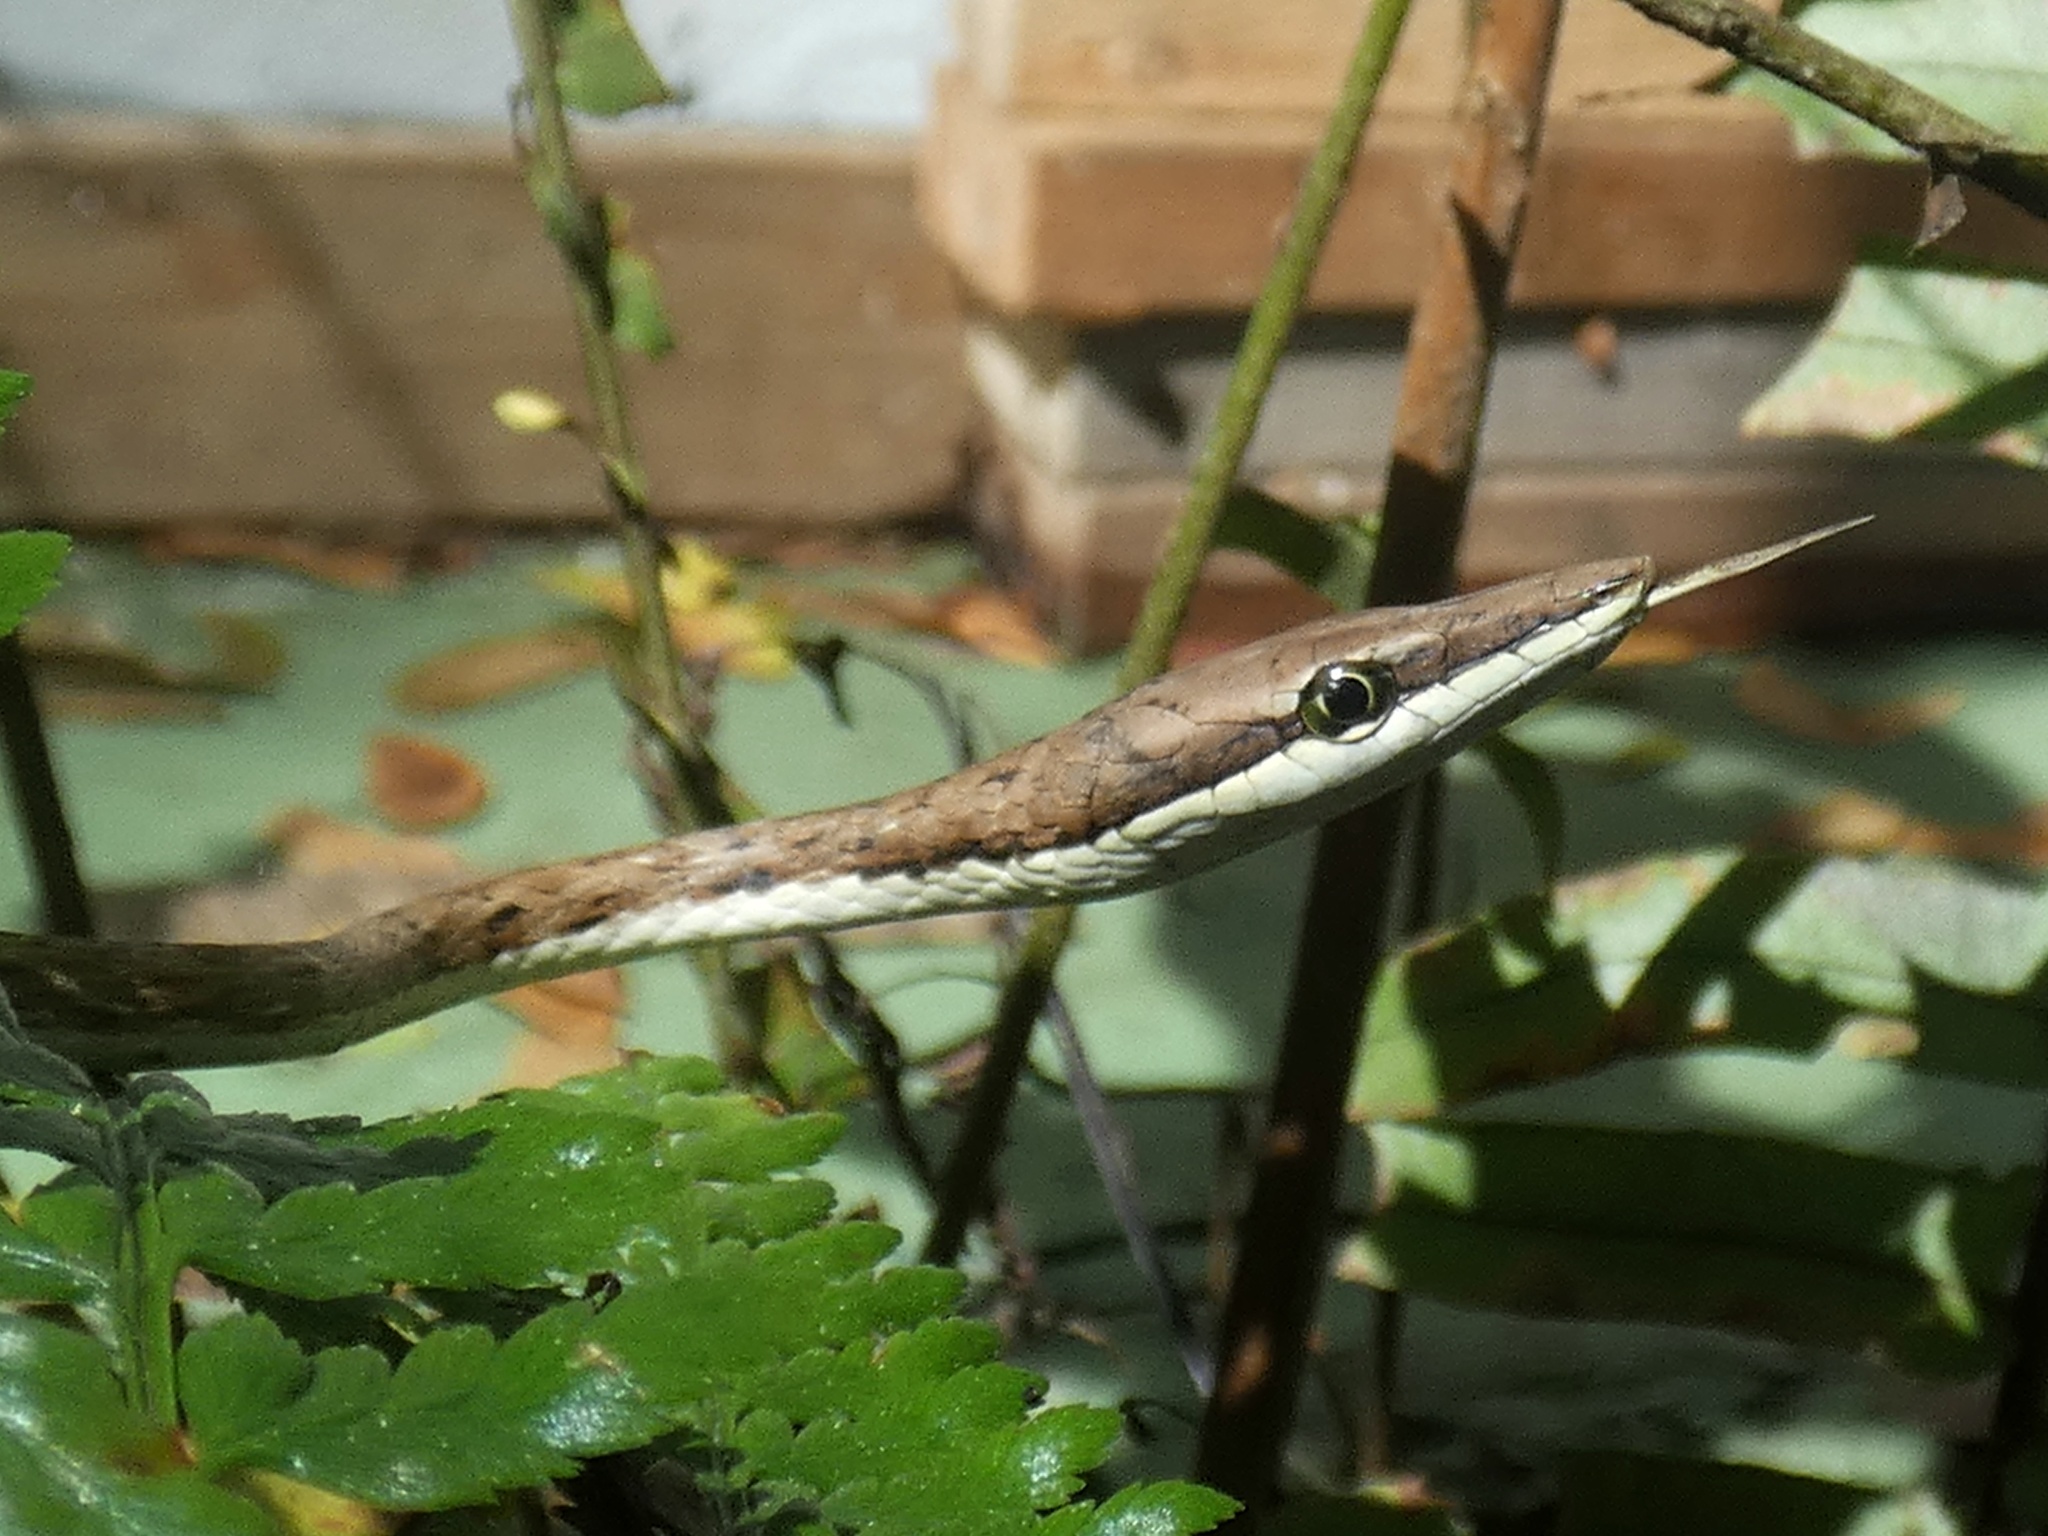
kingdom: Animalia
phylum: Chordata
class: Squamata
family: Colubridae
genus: Oxybelis
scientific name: Oxybelis vittatus
